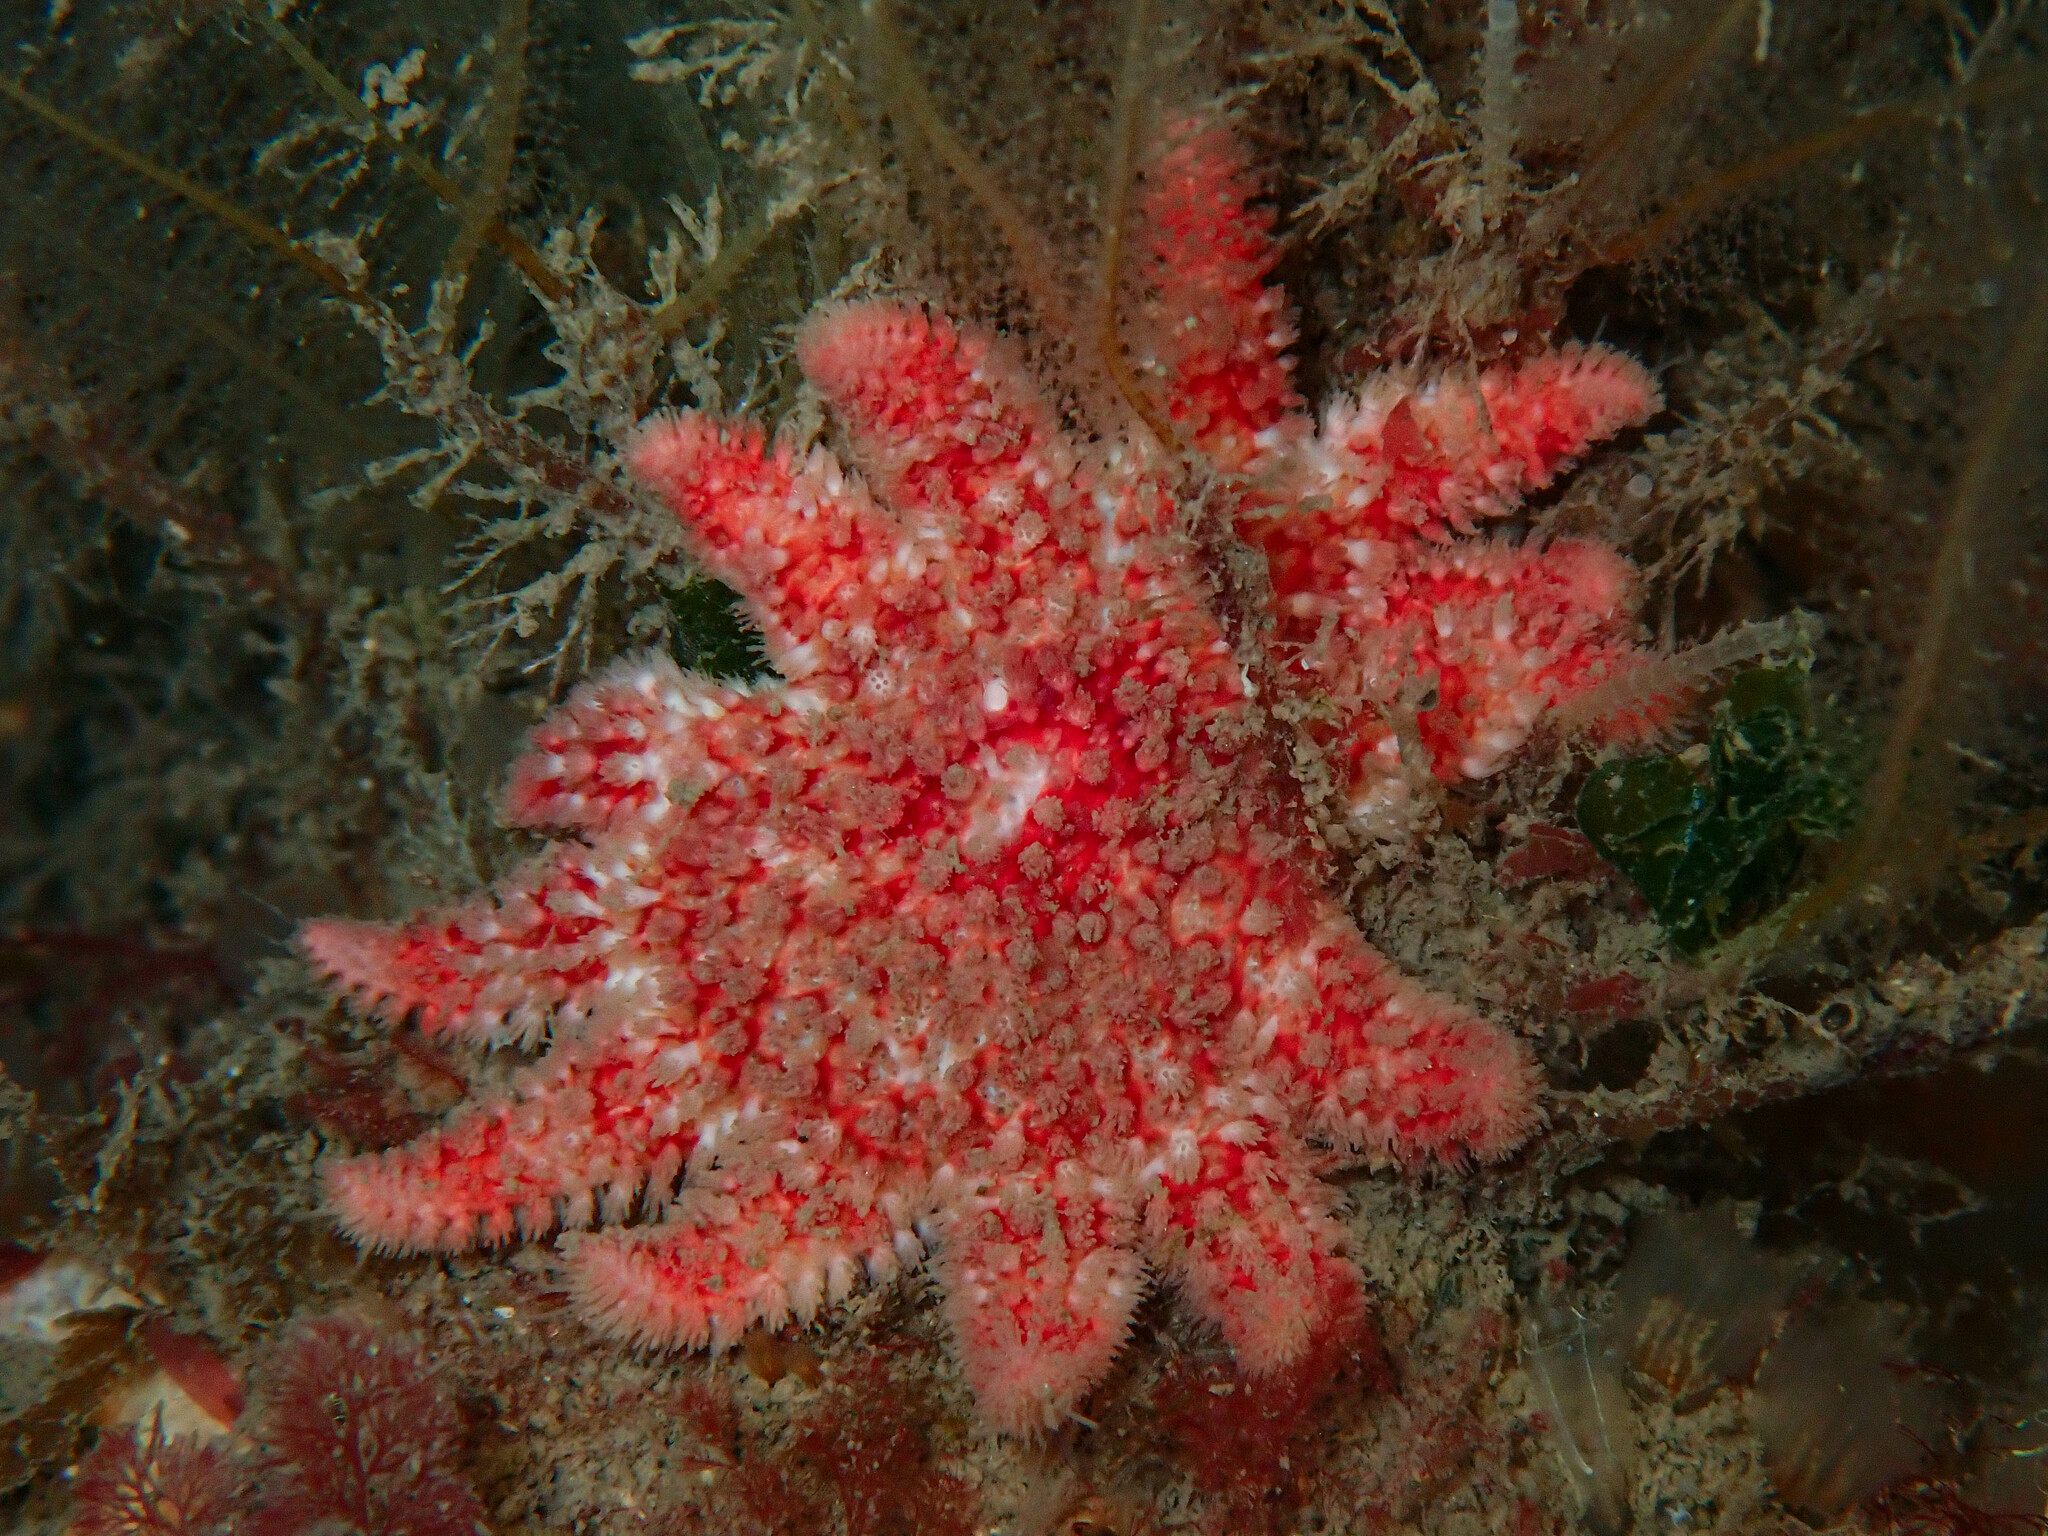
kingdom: Animalia
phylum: Echinodermata
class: Asteroidea
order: Valvatida
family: Solasteridae
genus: Crossaster
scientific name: Crossaster papposus
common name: Common sun star
